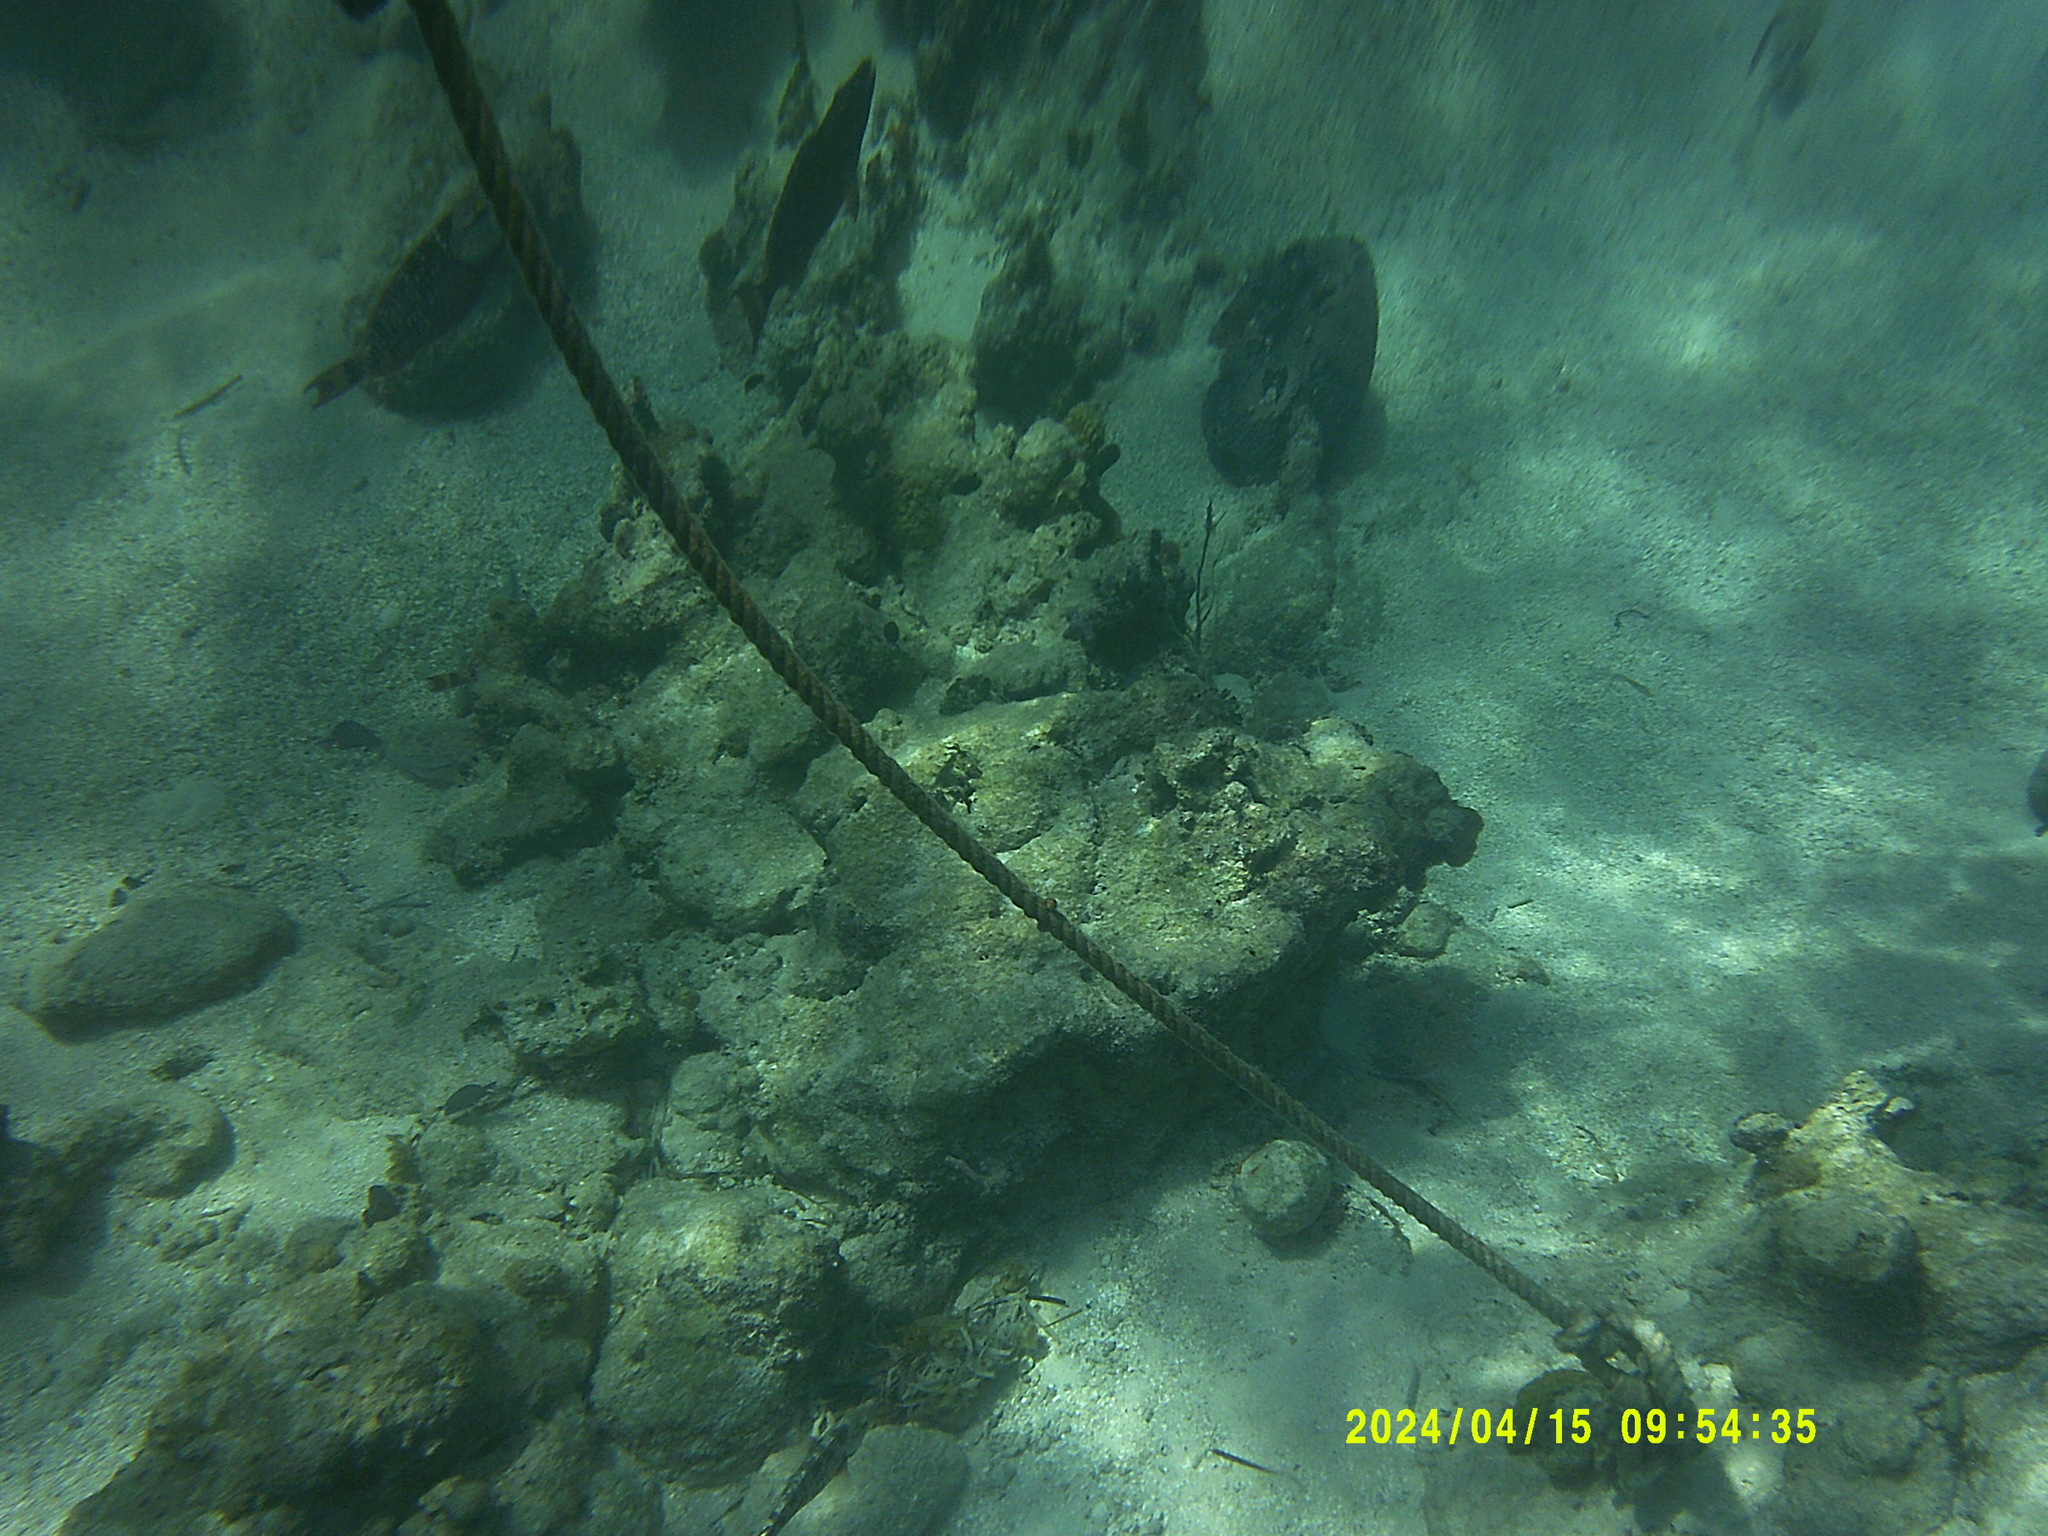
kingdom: Animalia
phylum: Chordata
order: Perciformes
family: Scaridae
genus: Sparisoma
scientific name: Sparisoma viride
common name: Stoplight parrotfish
